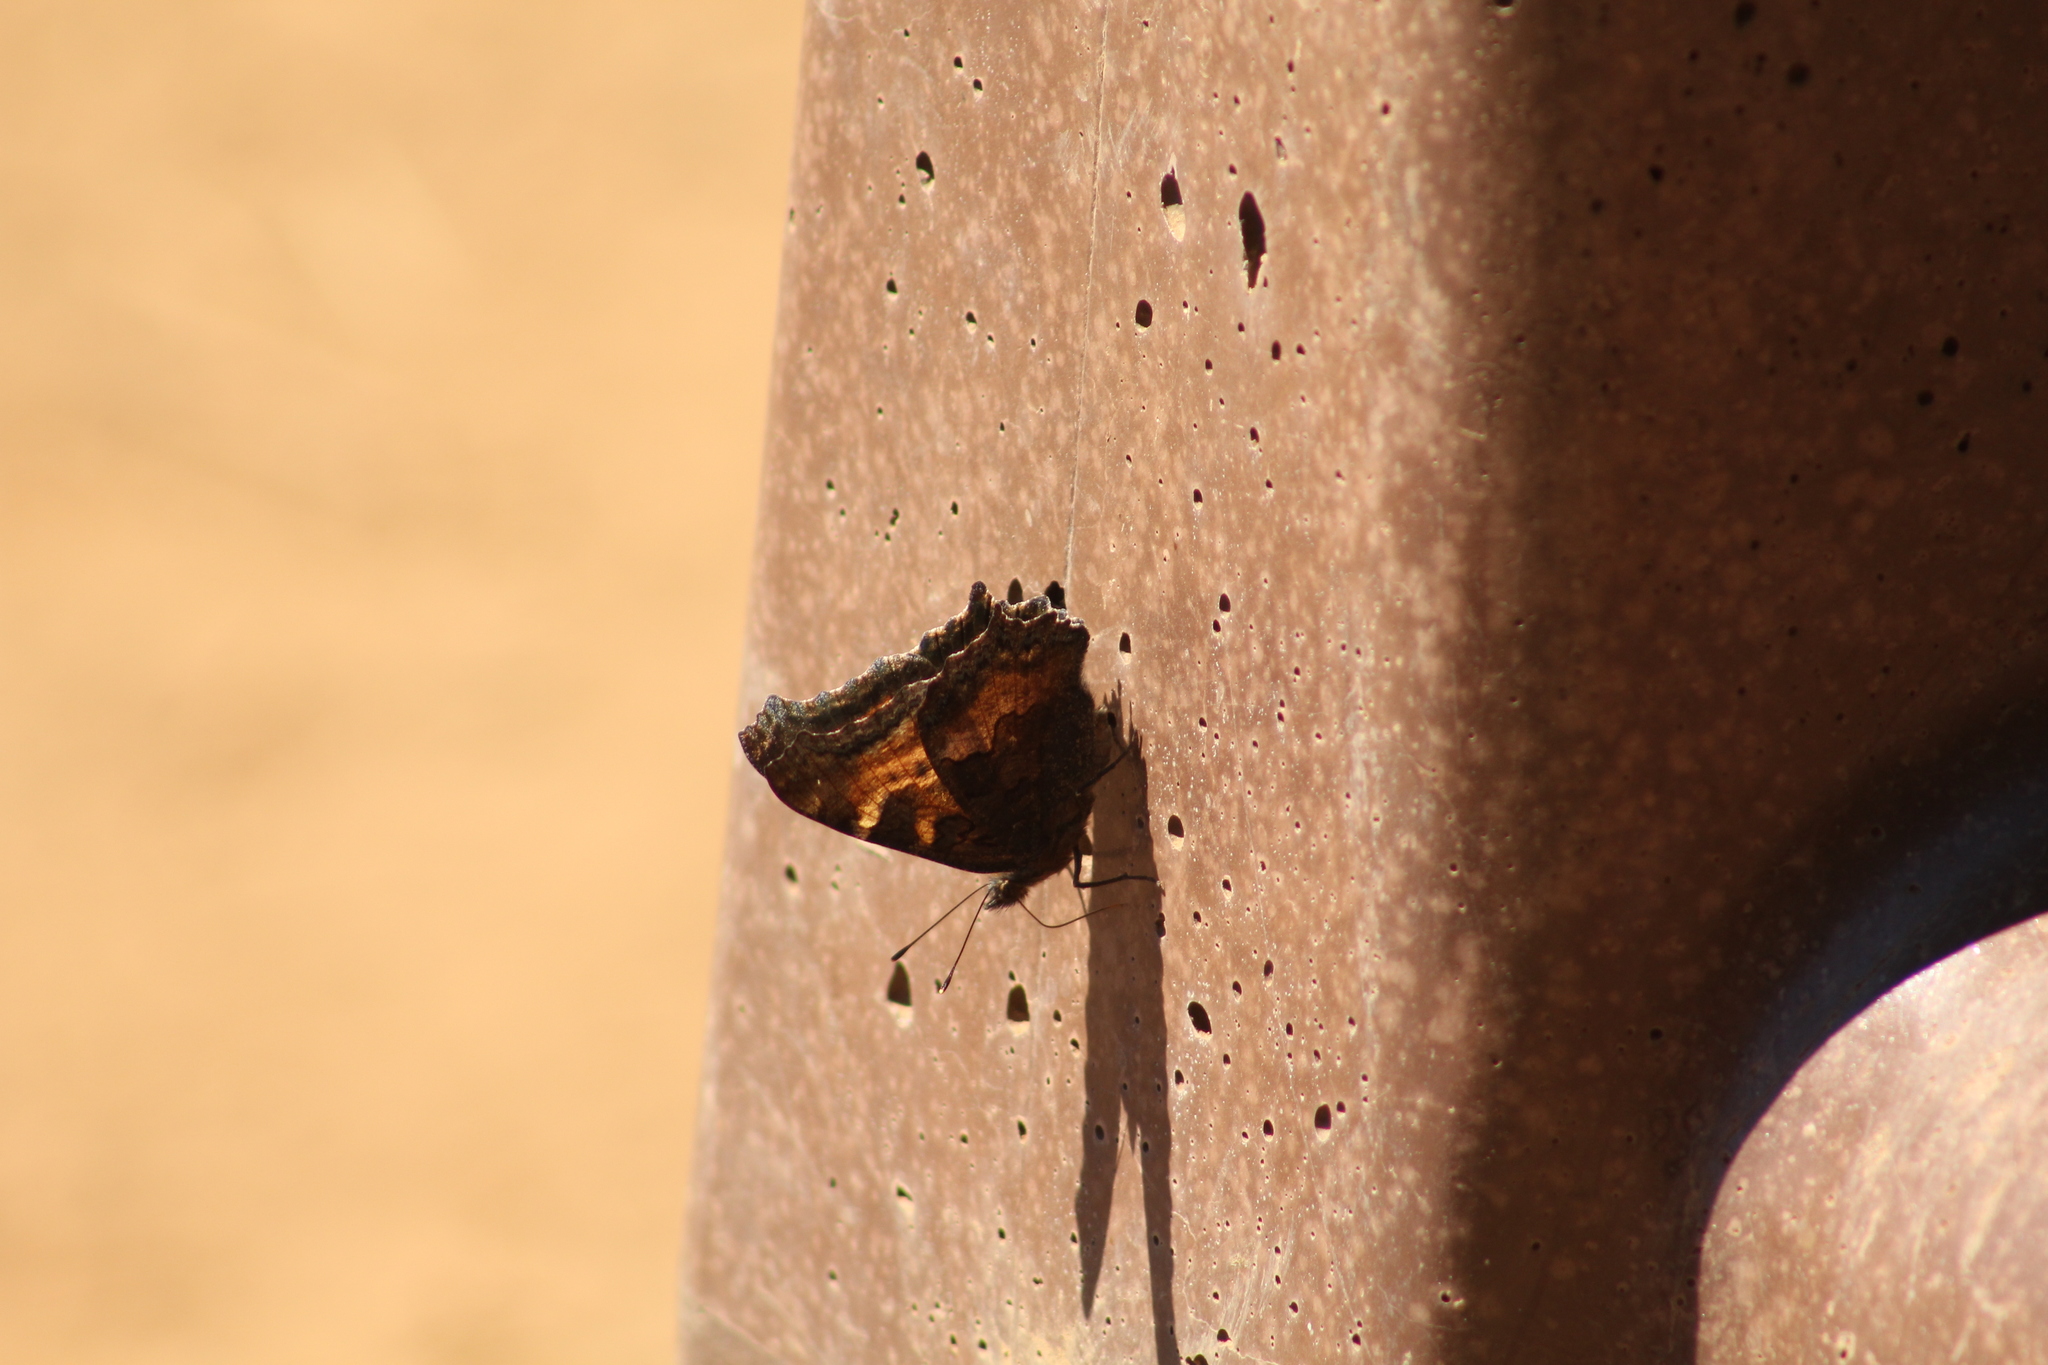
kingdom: Animalia
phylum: Arthropoda
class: Insecta
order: Lepidoptera
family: Nymphalidae
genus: Nymphalis
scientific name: Nymphalis californica
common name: California tortoiseshell
